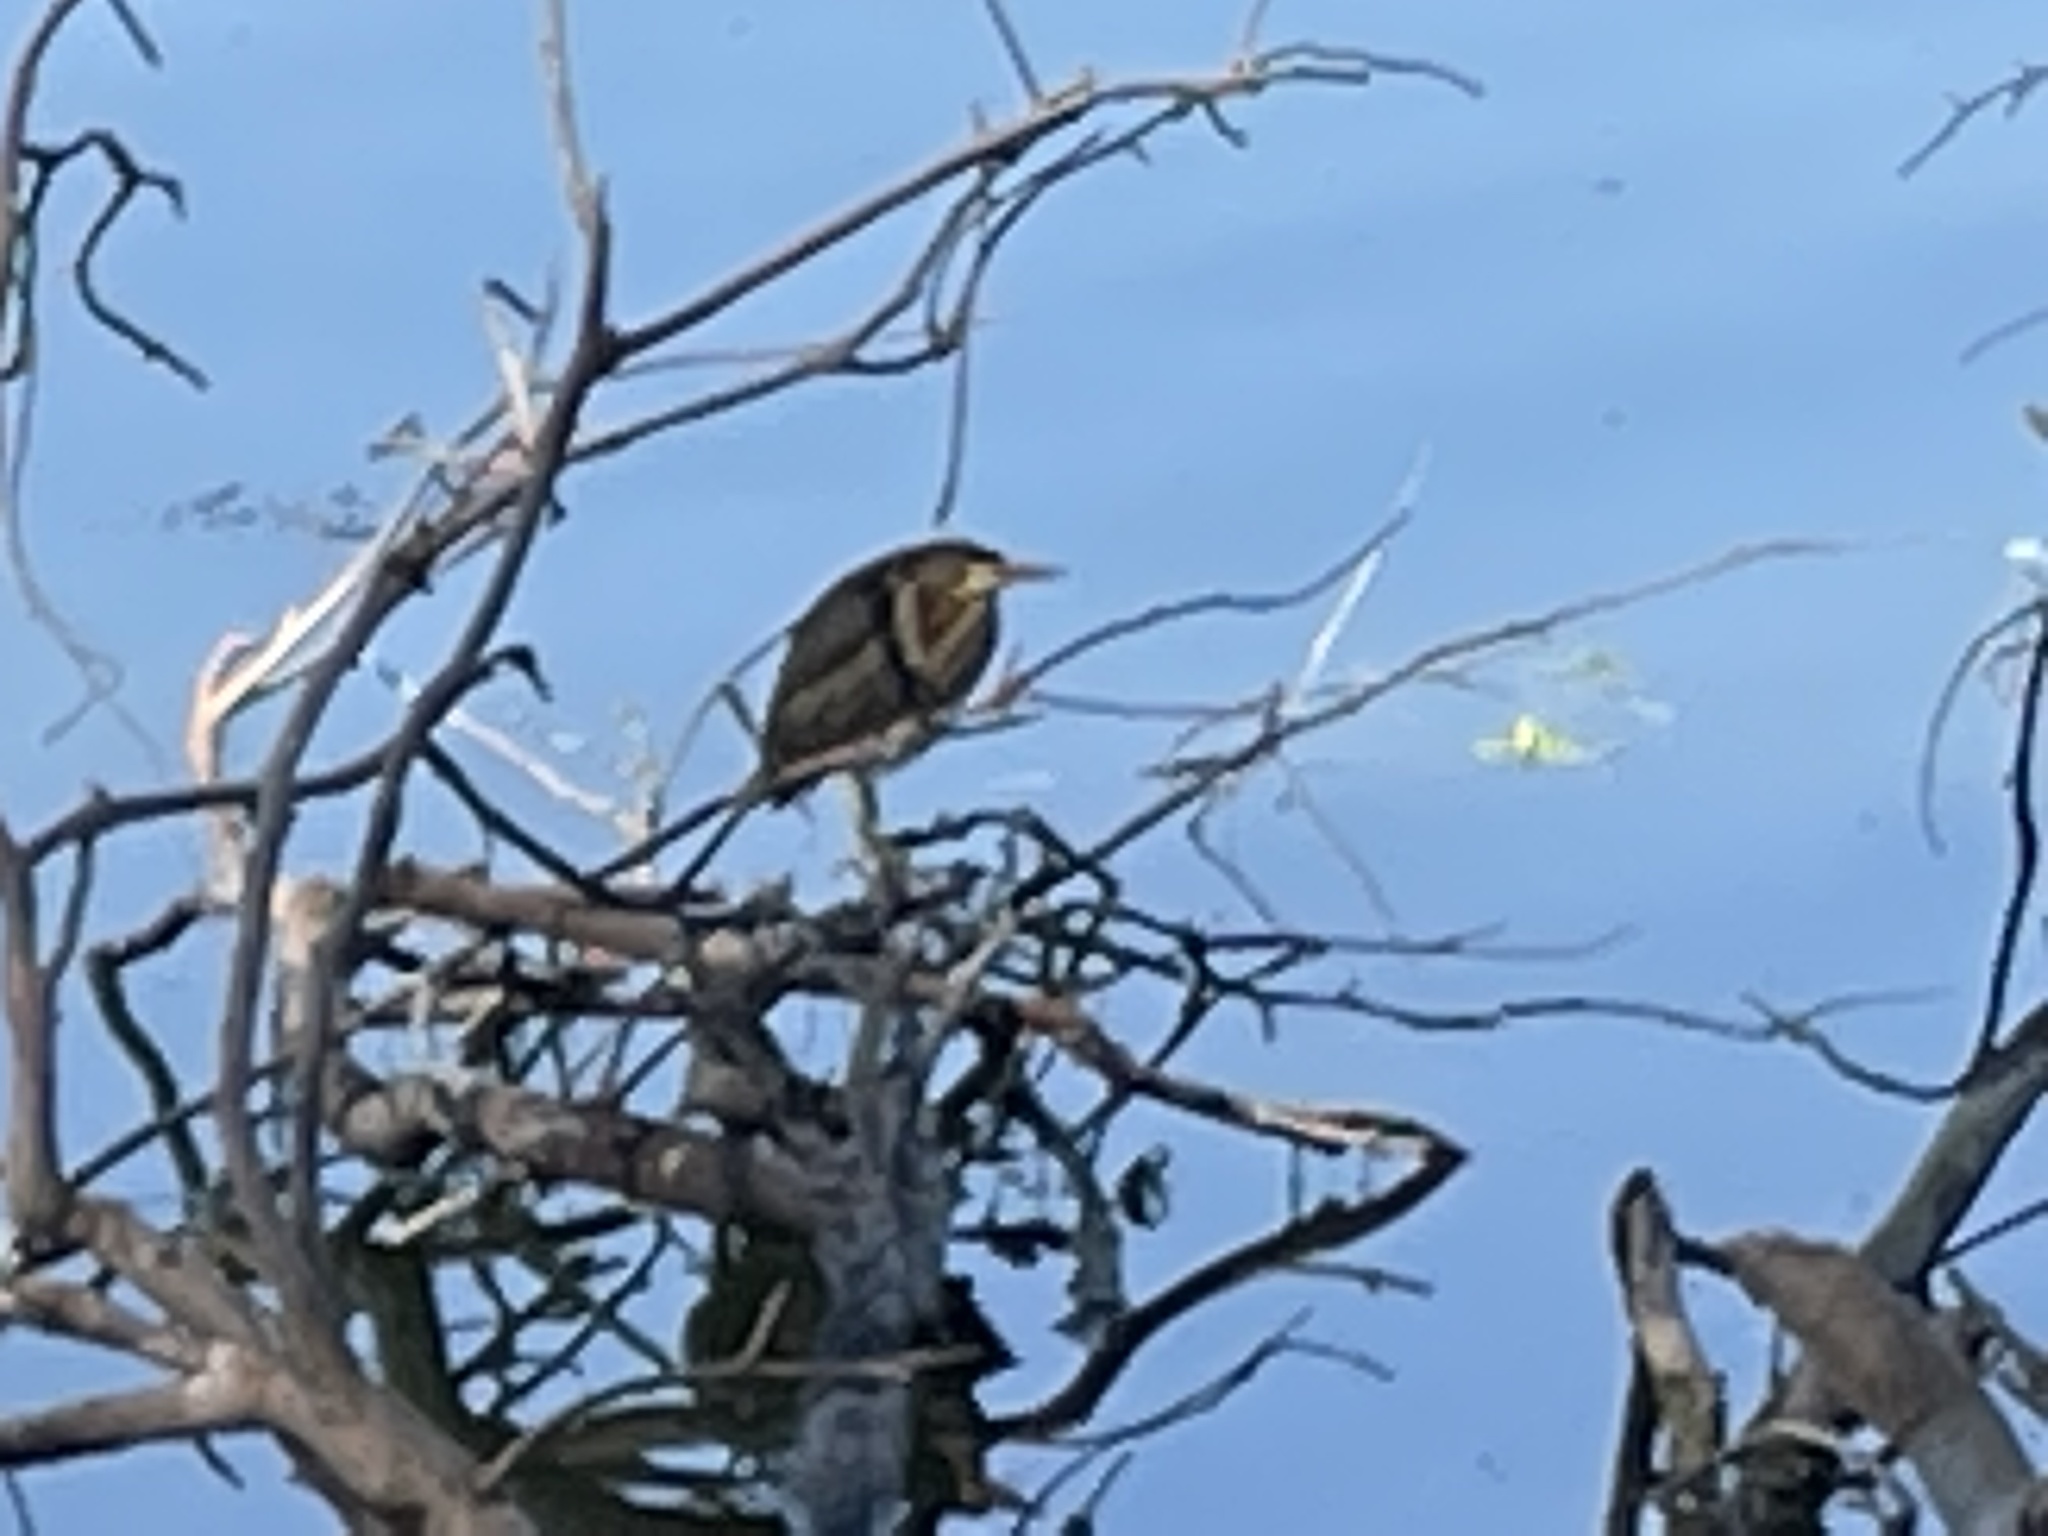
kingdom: Animalia
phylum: Chordata
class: Aves
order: Pelecaniformes
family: Ardeidae
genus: Butorides
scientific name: Butorides virescens
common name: Green heron
